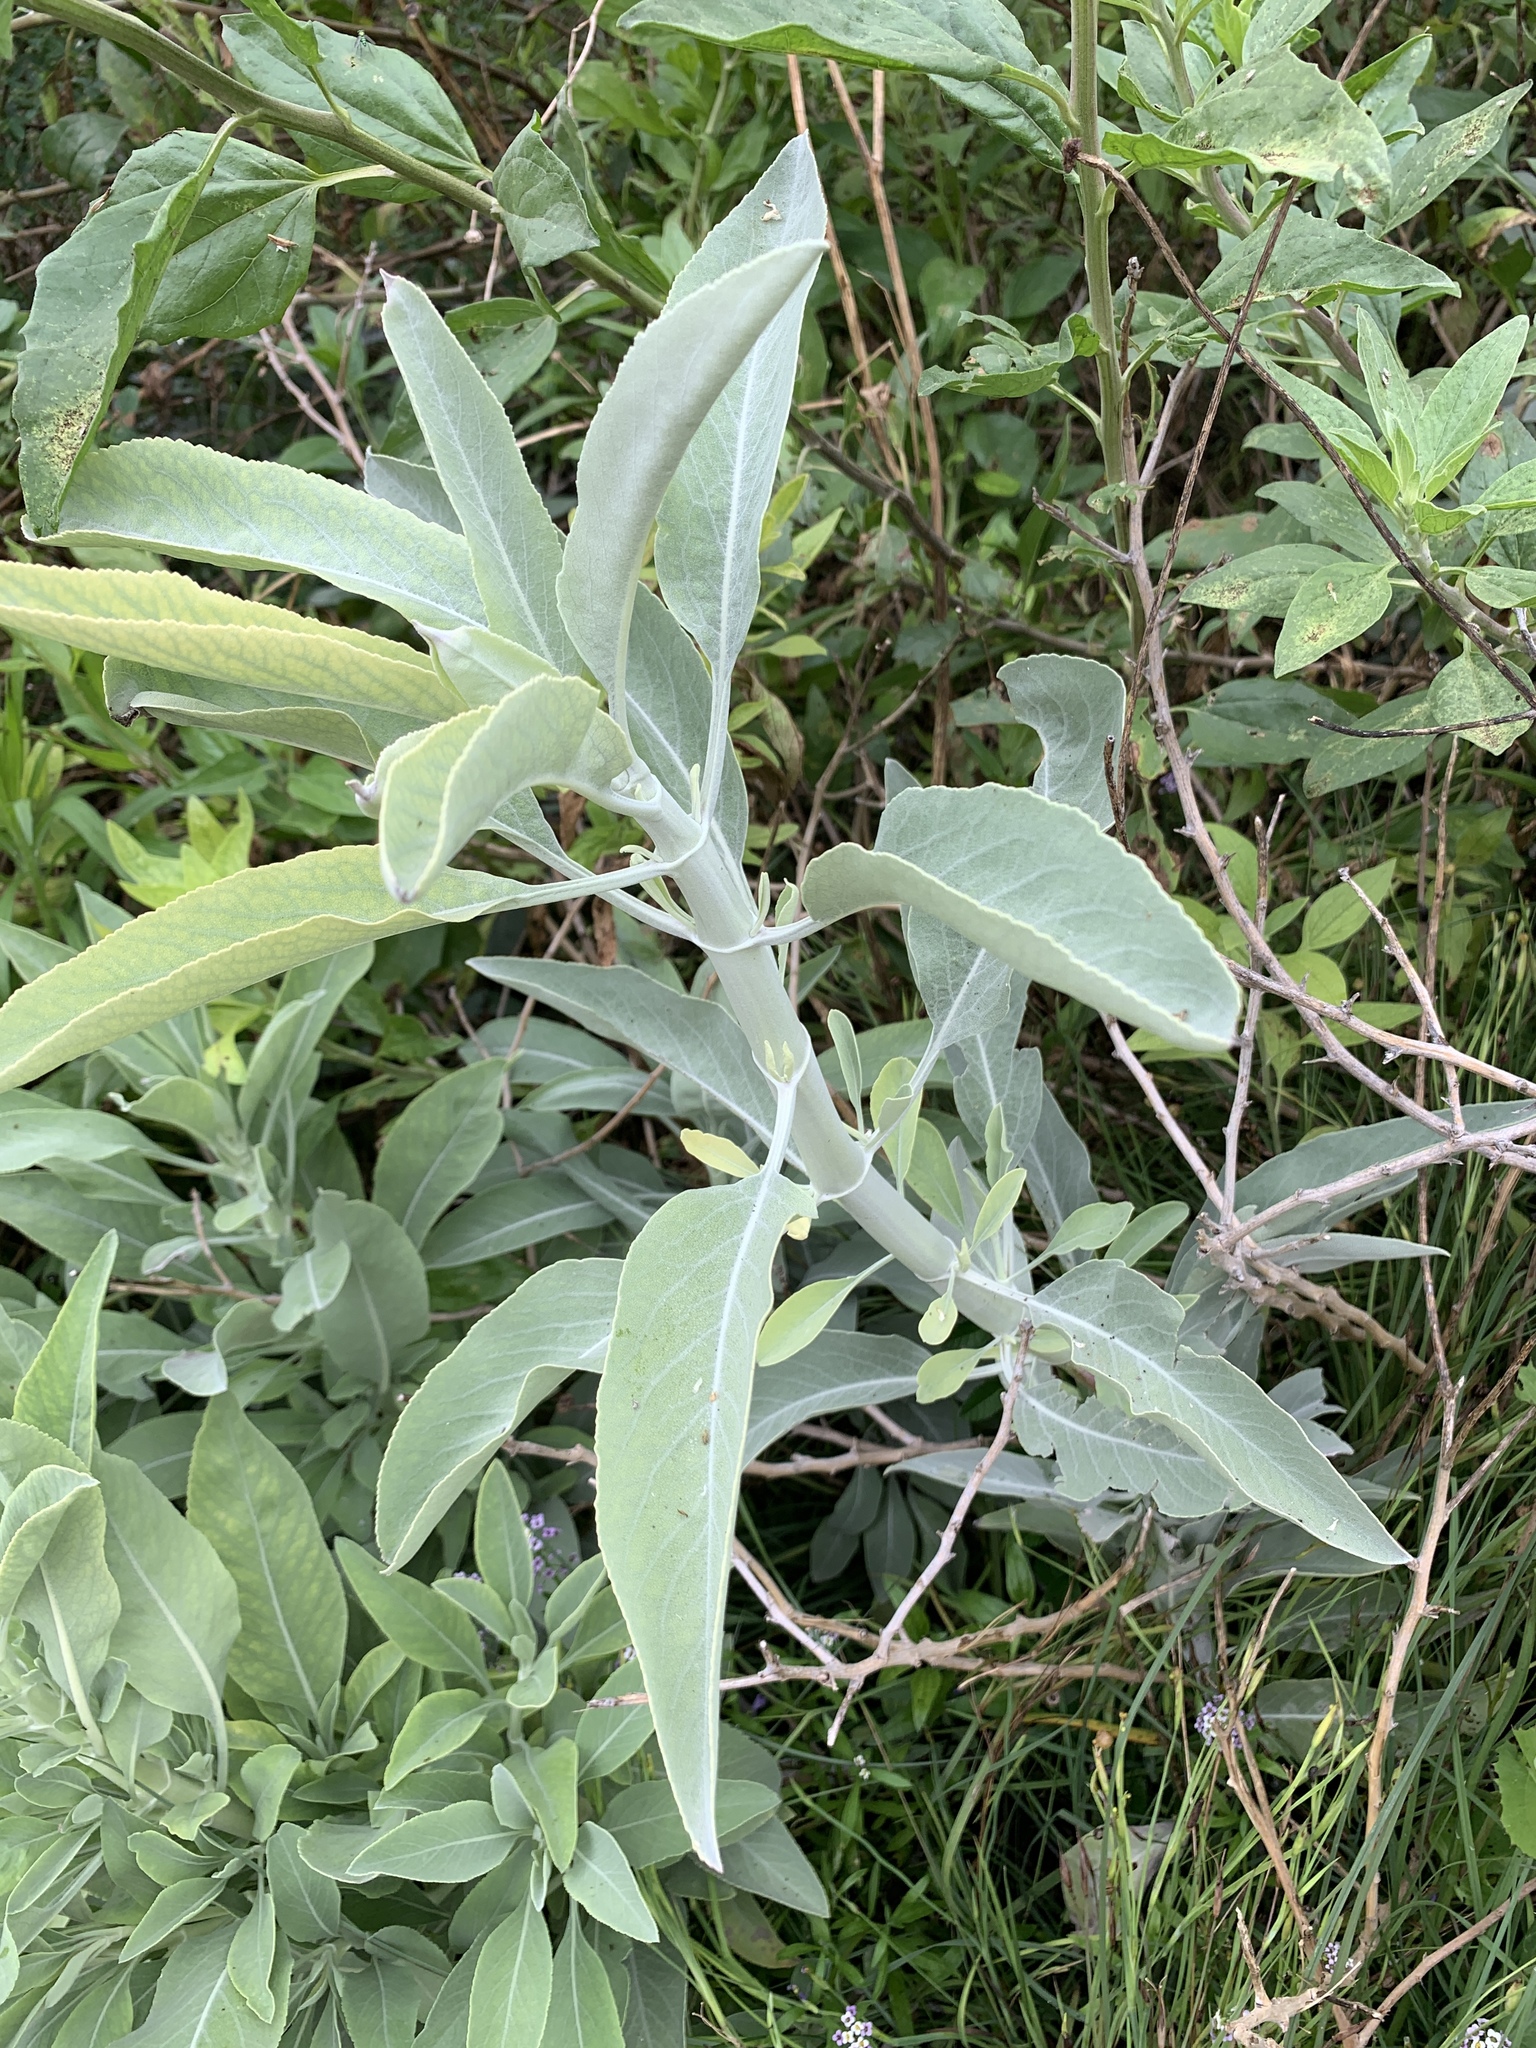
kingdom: Plantae
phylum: Tracheophyta
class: Magnoliopsida
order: Lamiales
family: Lamiaceae
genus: Salvia
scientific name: Salvia apiana
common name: White sage
